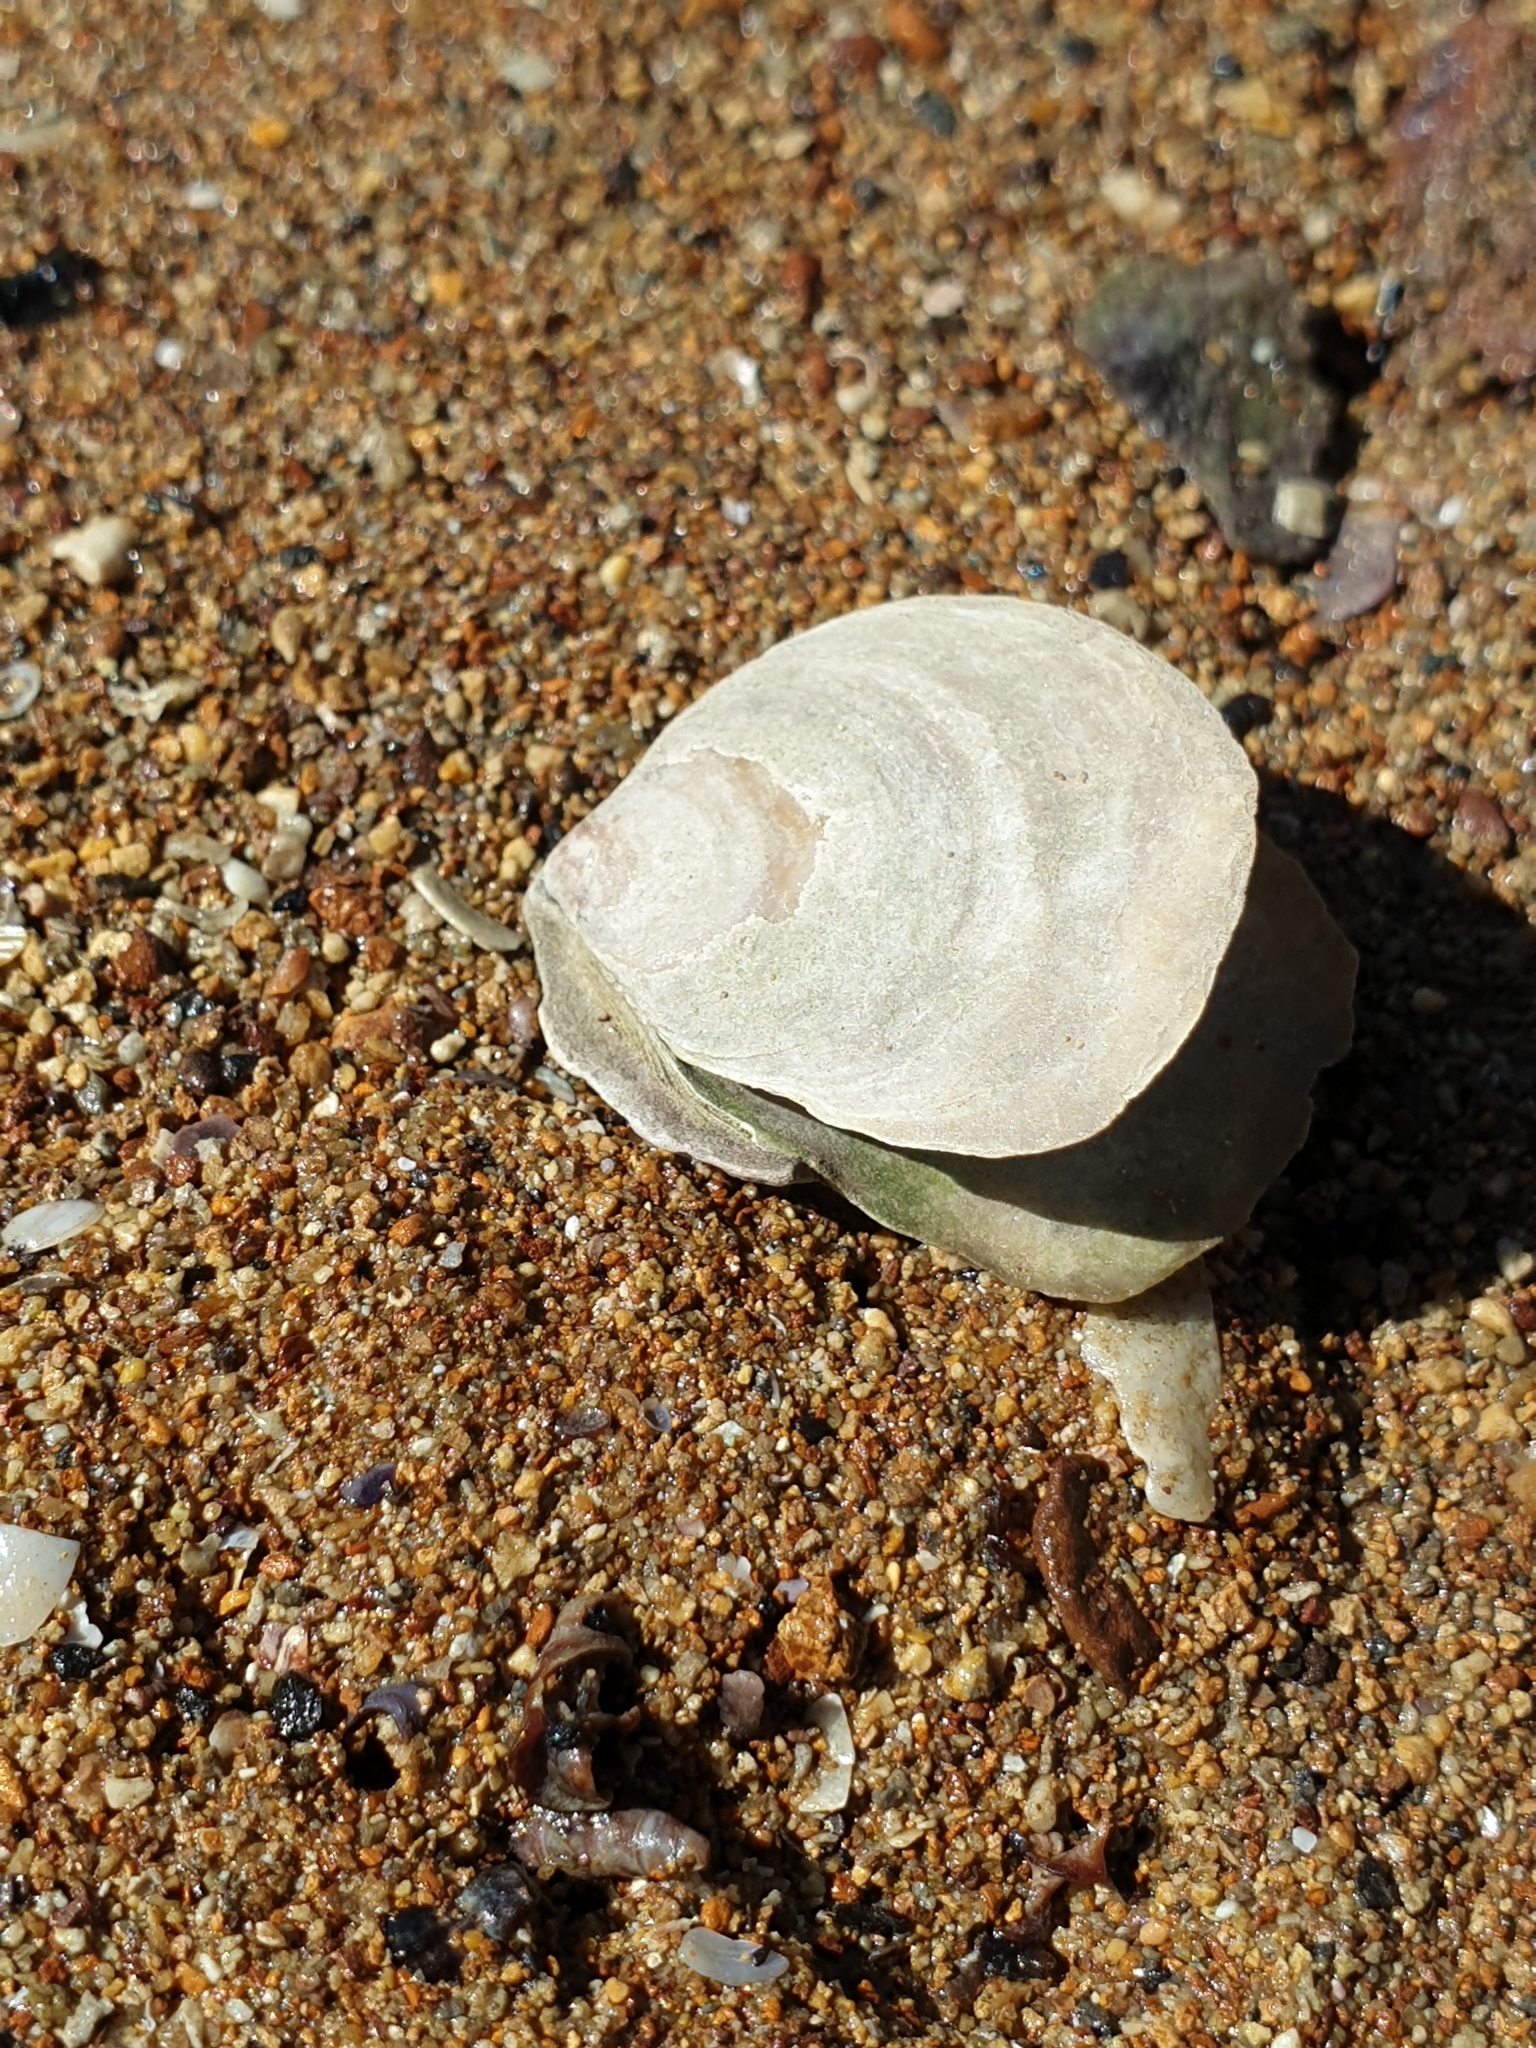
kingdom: Animalia
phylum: Mollusca
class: Bivalvia
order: Ostreida
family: Ostreidae
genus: Ostrea
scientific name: Ostrea chilensis
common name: Chilean oyster
